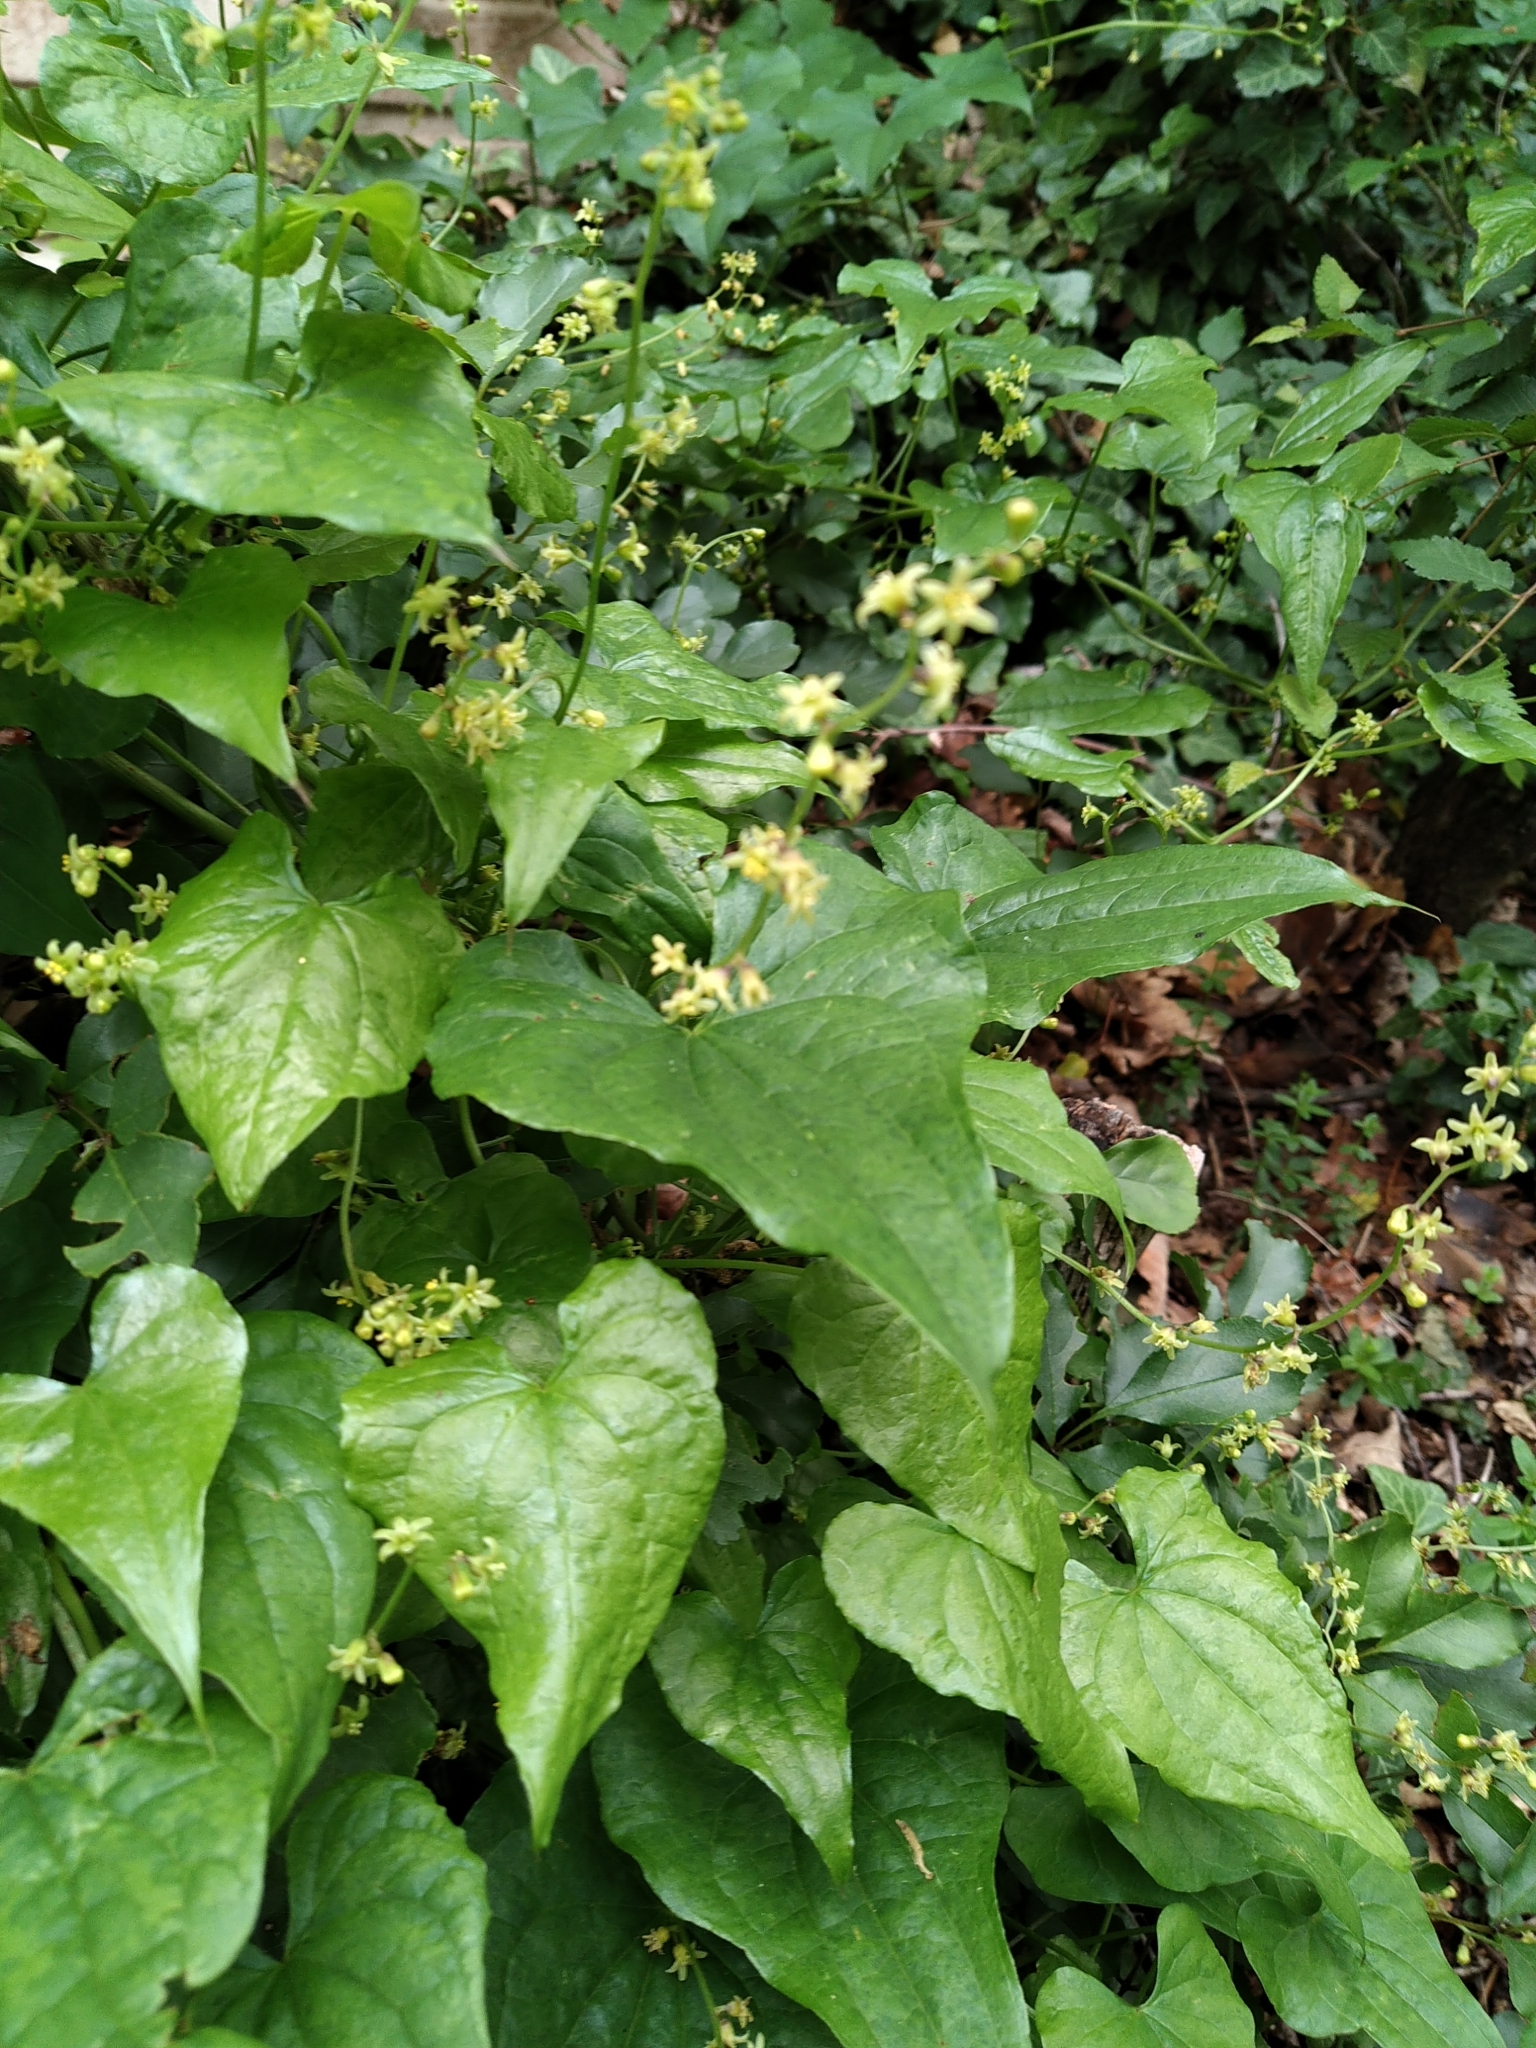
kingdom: Plantae
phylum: Tracheophyta
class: Liliopsida
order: Dioscoreales
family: Dioscoreaceae
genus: Dioscorea
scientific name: Dioscorea communis
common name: Black-bindweed
